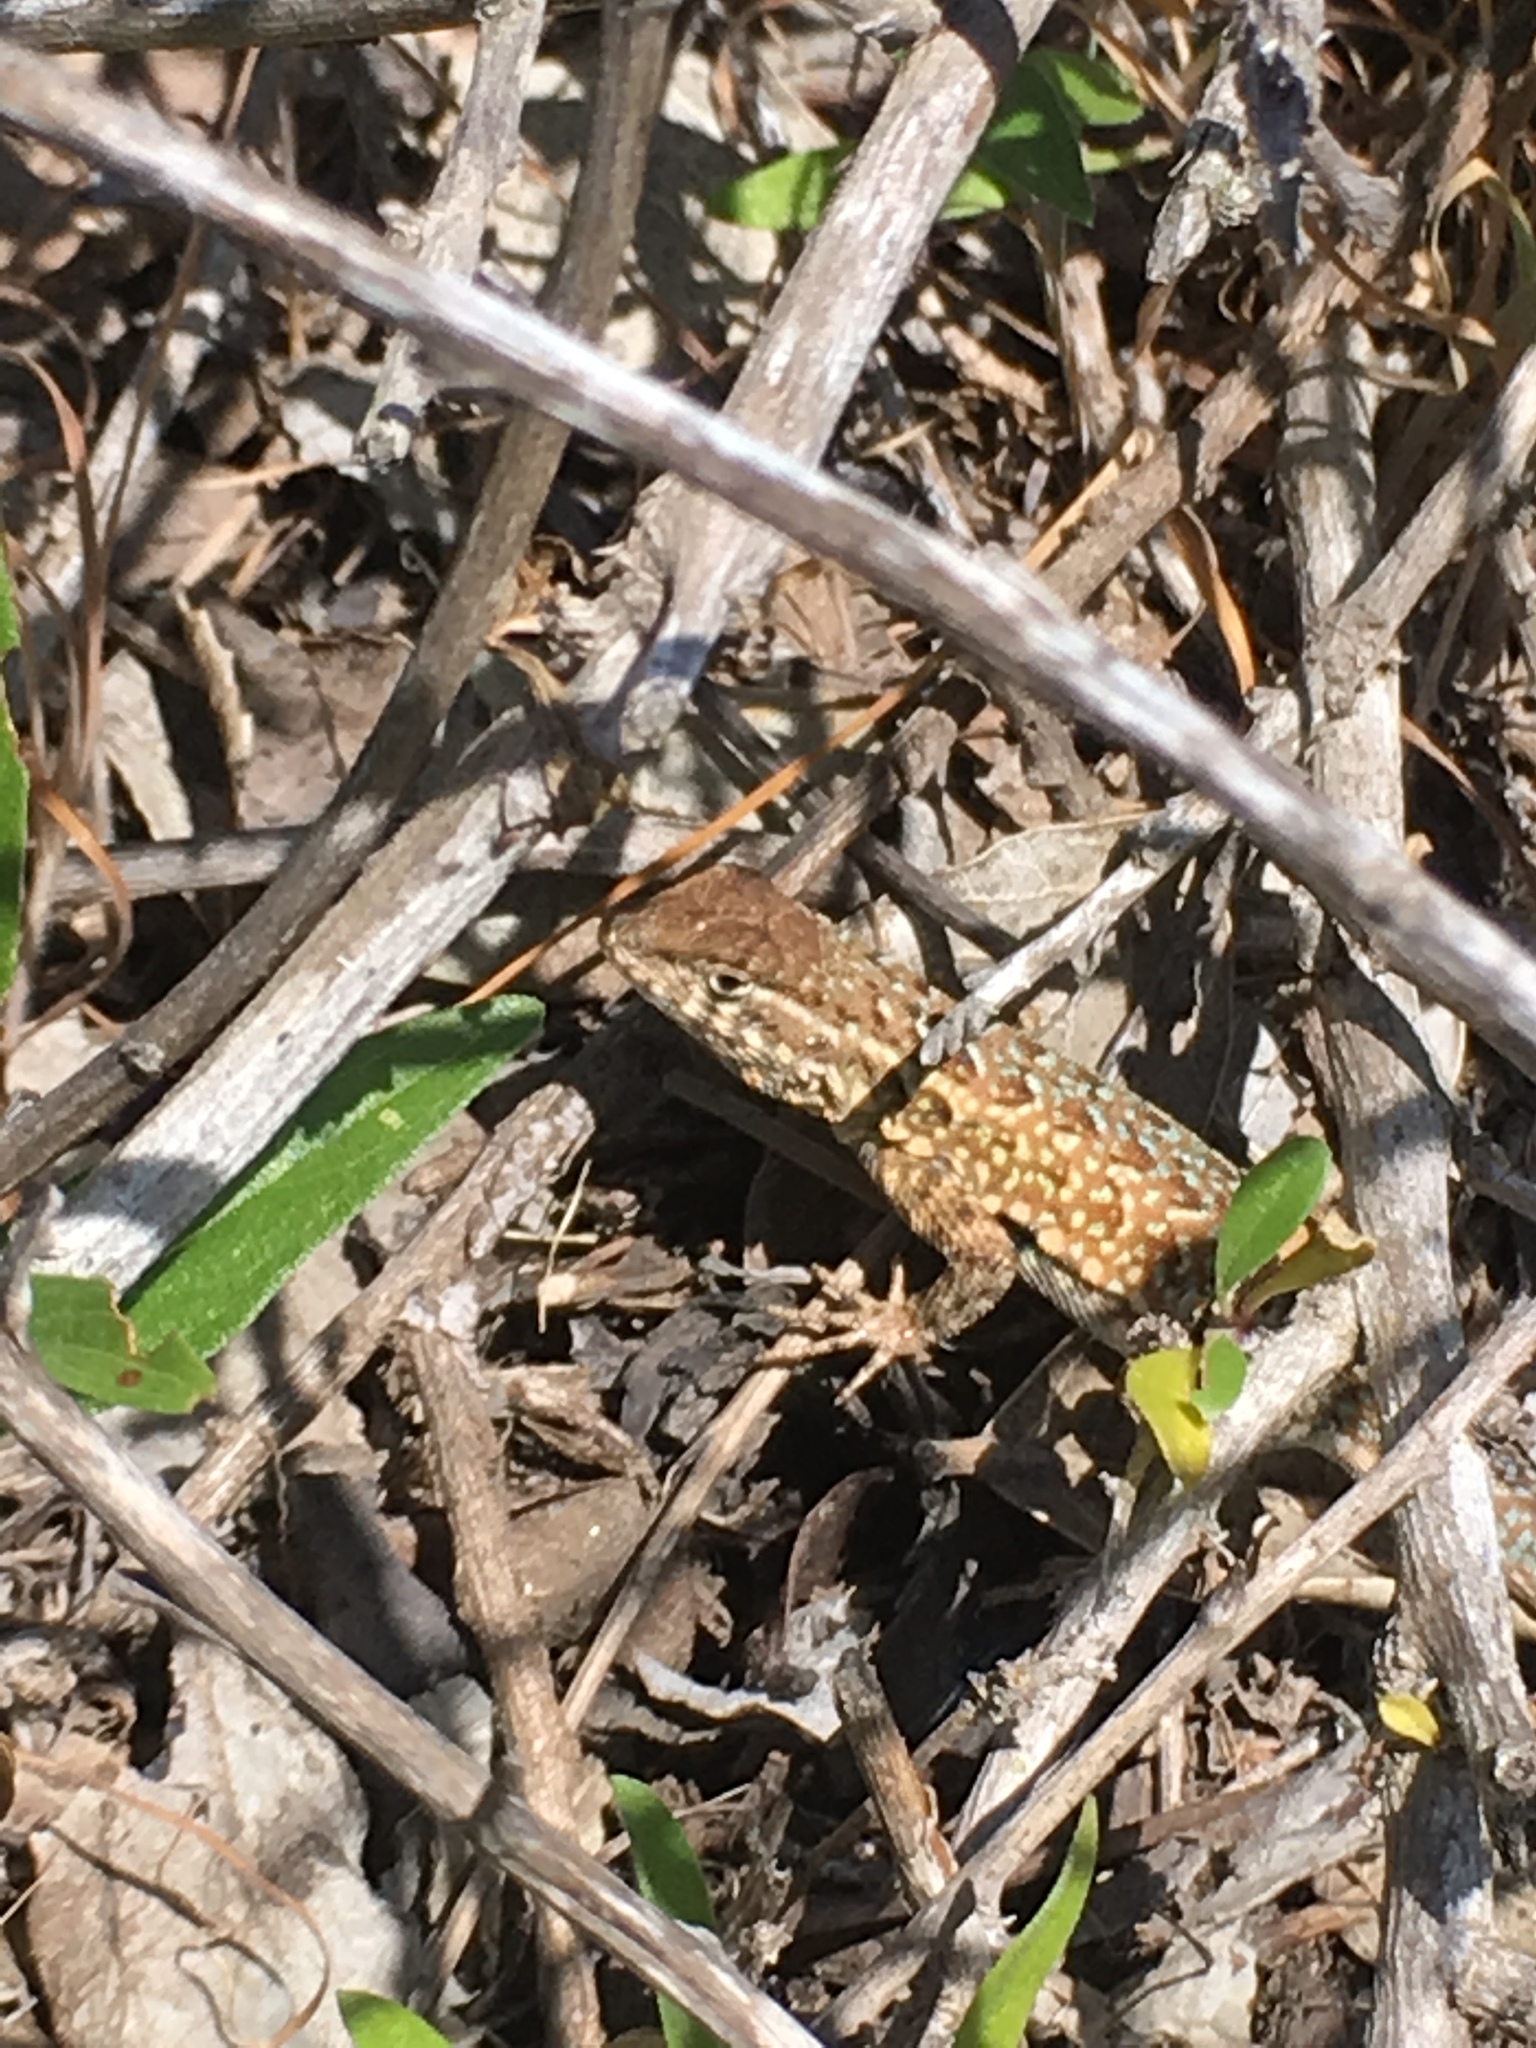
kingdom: Animalia
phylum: Chordata
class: Squamata
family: Phrynosomatidae
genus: Uta
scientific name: Uta stansburiana
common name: Side-blotched lizard
